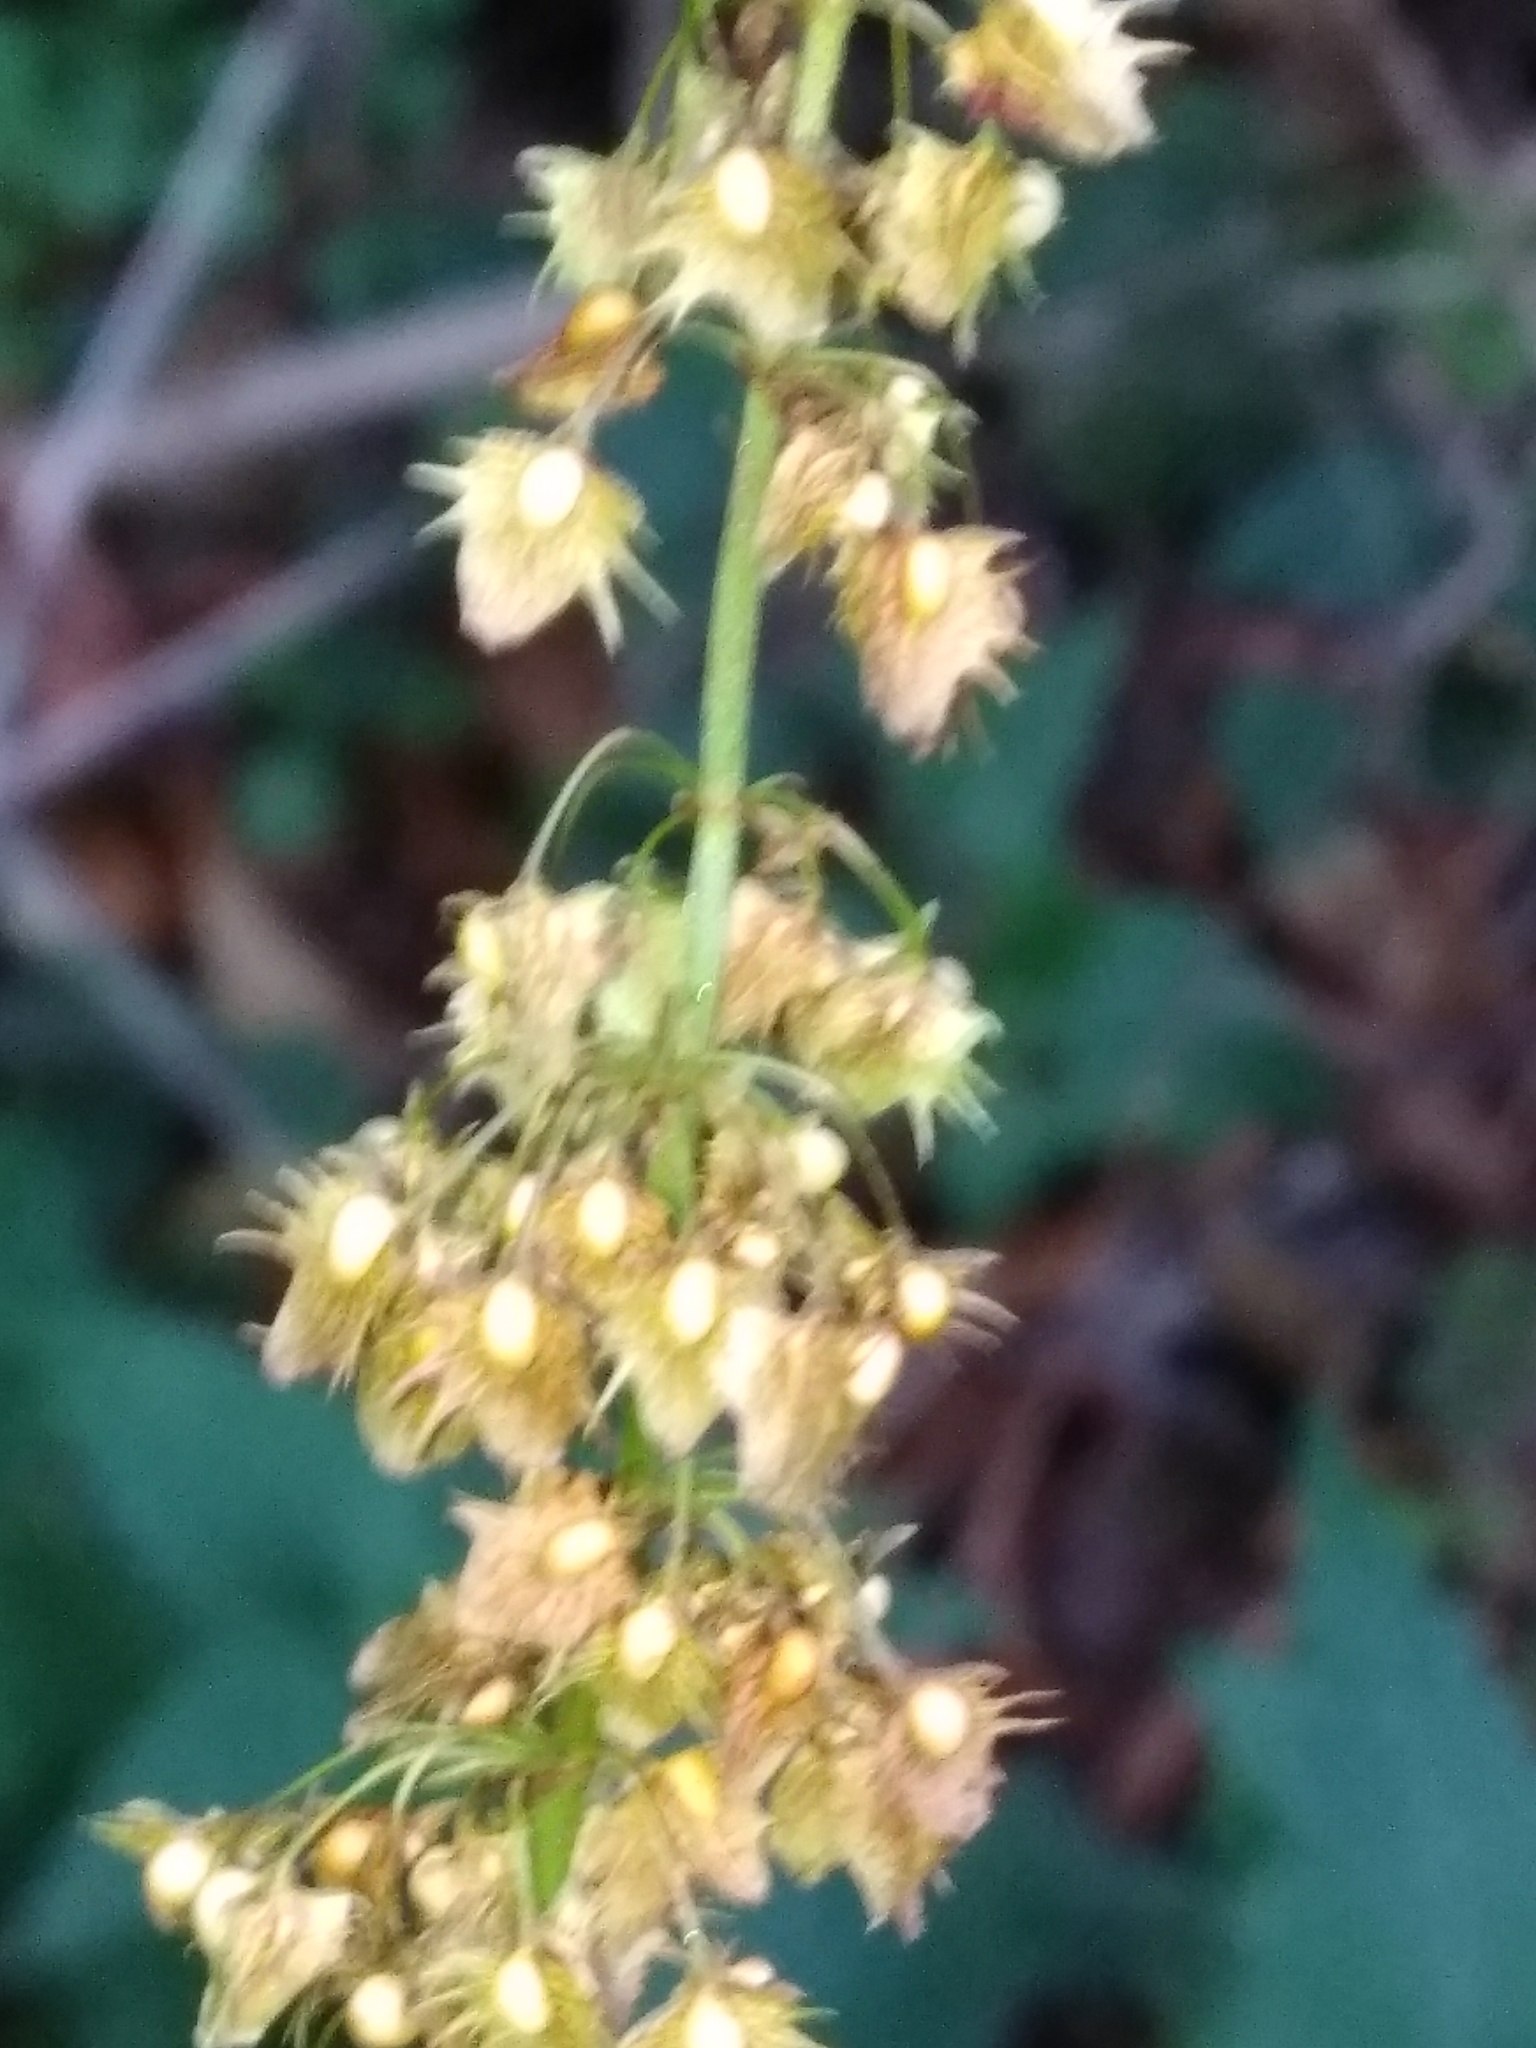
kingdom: Plantae
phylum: Tracheophyta
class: Magnoliopsida
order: Caryophyllales
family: Polygonaceae
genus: Rumex
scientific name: Rumex obtusifolius
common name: Bitter dock
